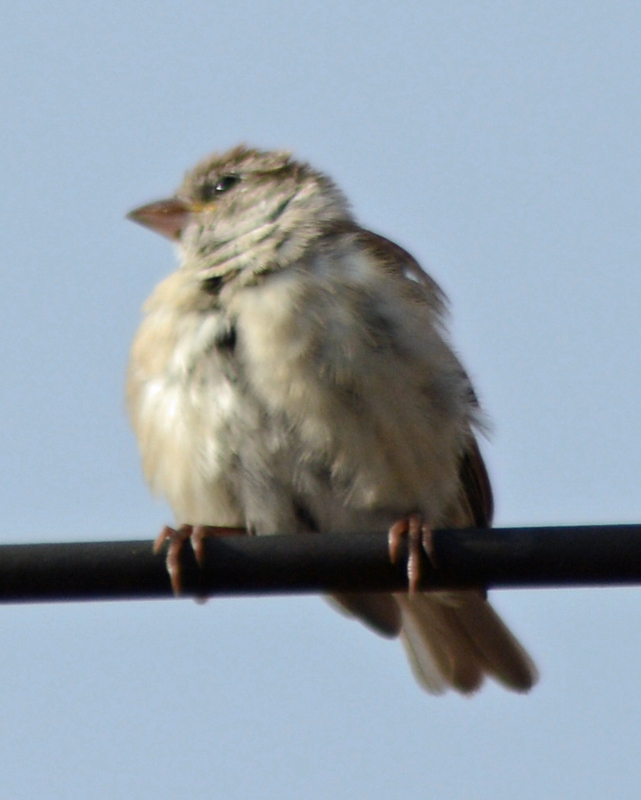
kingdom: Animalia
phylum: Chordata
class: Aves
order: Passeriformes
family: Passeridae
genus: Passer
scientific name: Passer domesticus
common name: House sparrow
